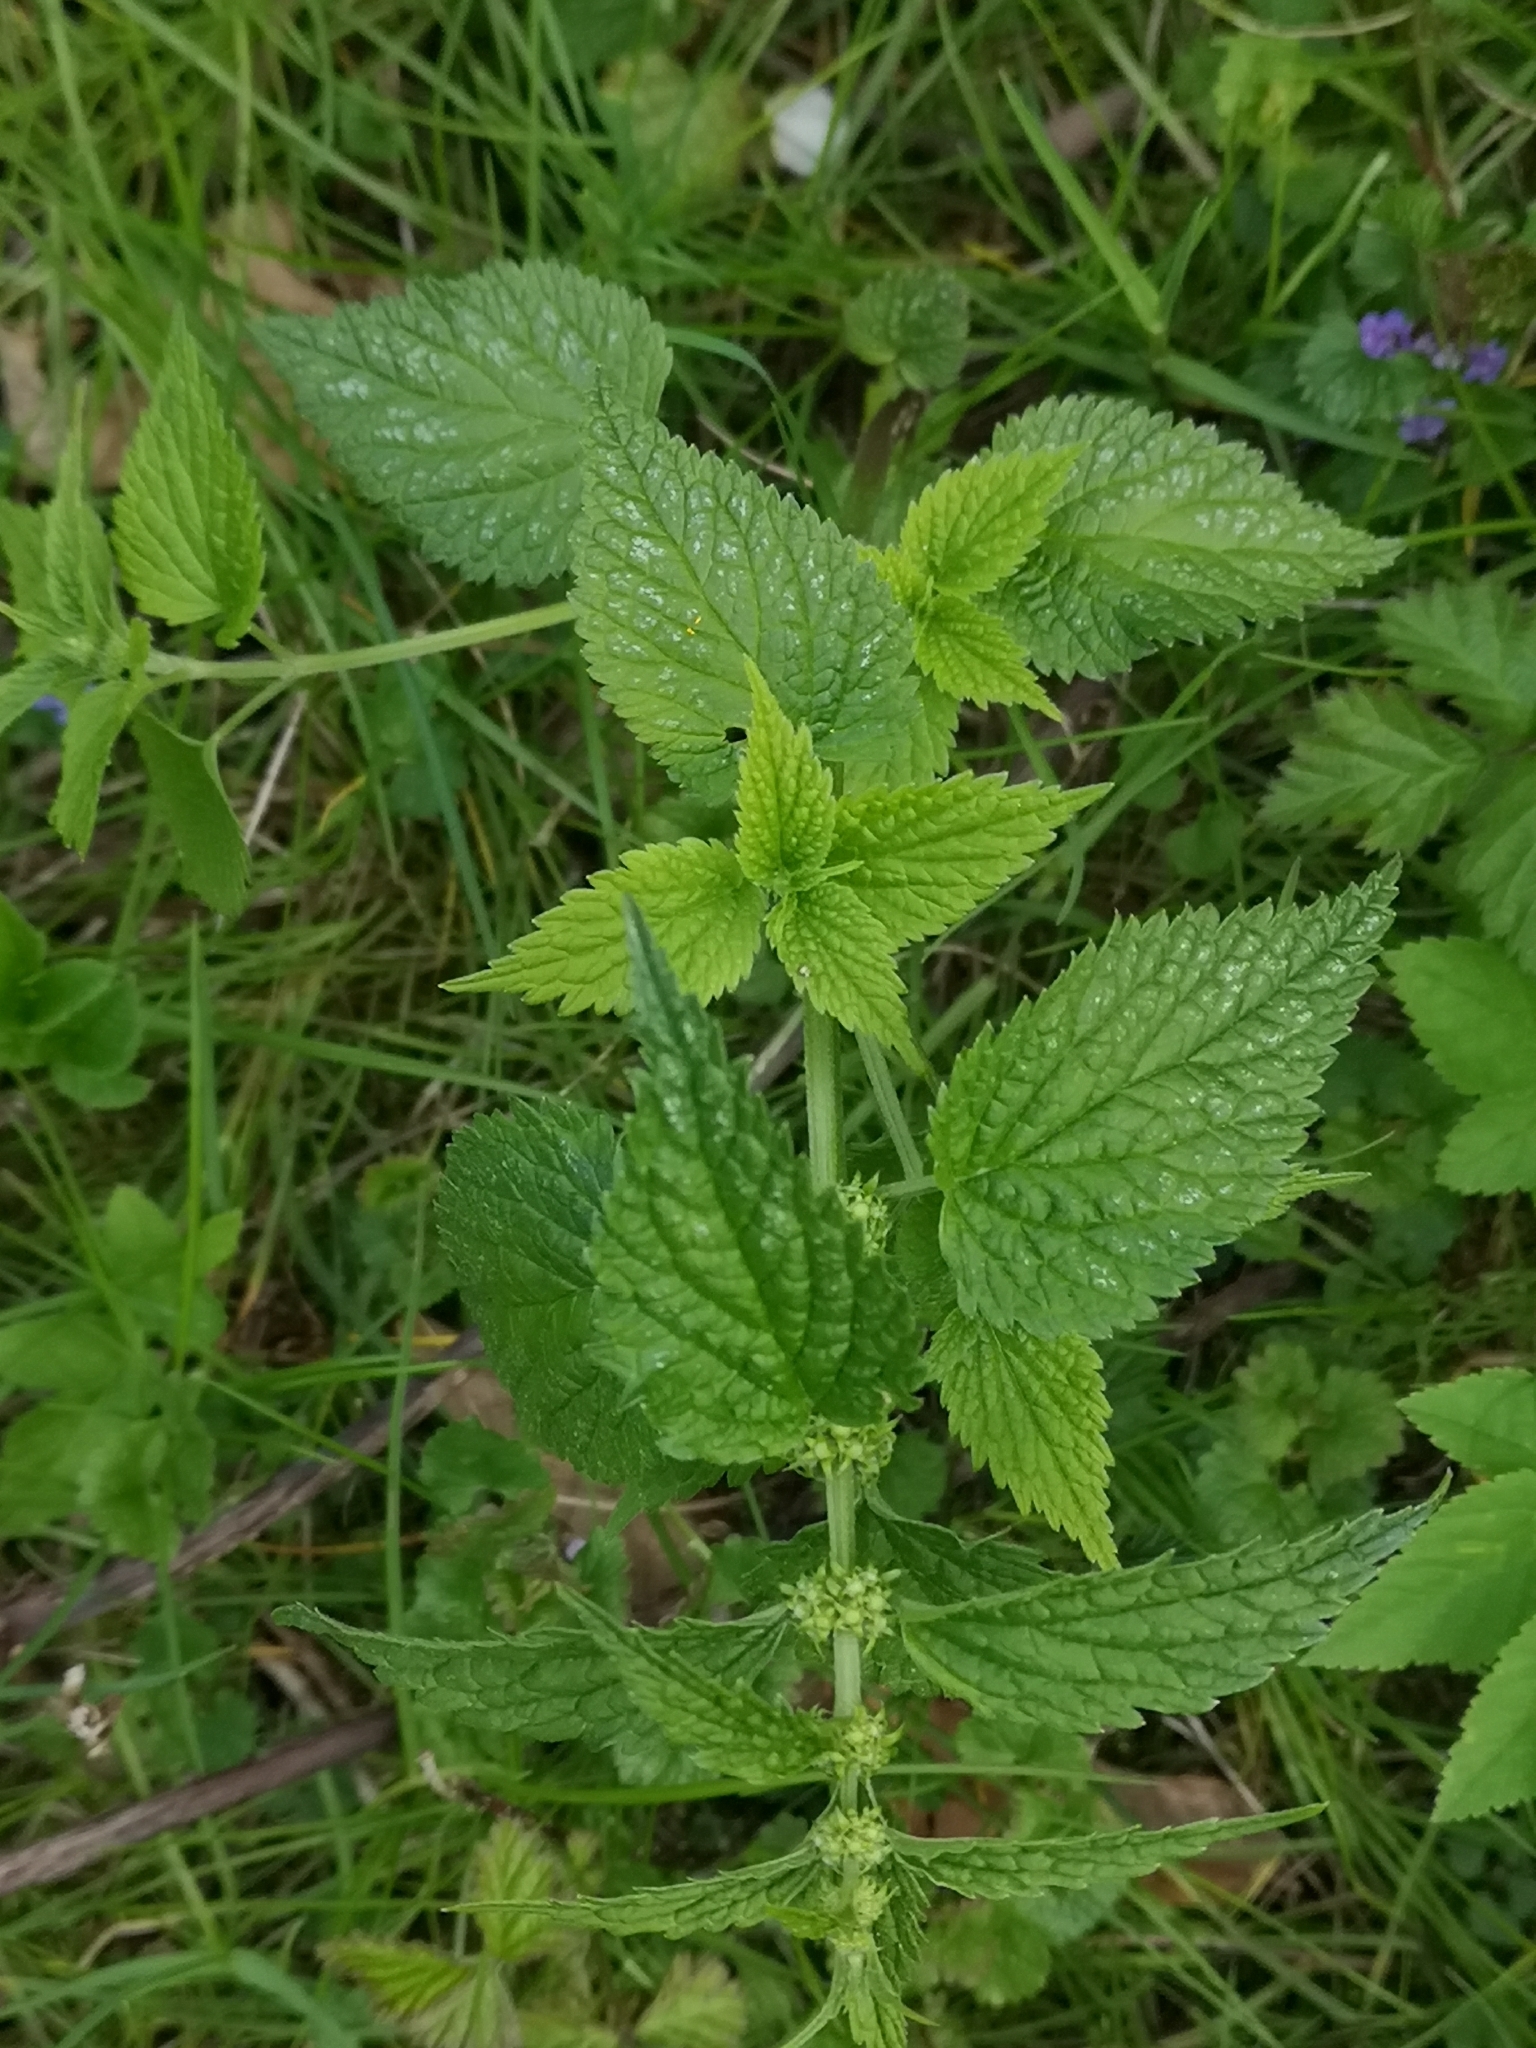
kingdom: Plantae
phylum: Tracheophyta
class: Magnoliopsida
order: Lamiales
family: Lamiaceae
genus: Lamium
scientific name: Lamium galeobdolon
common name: Yellow archangel
